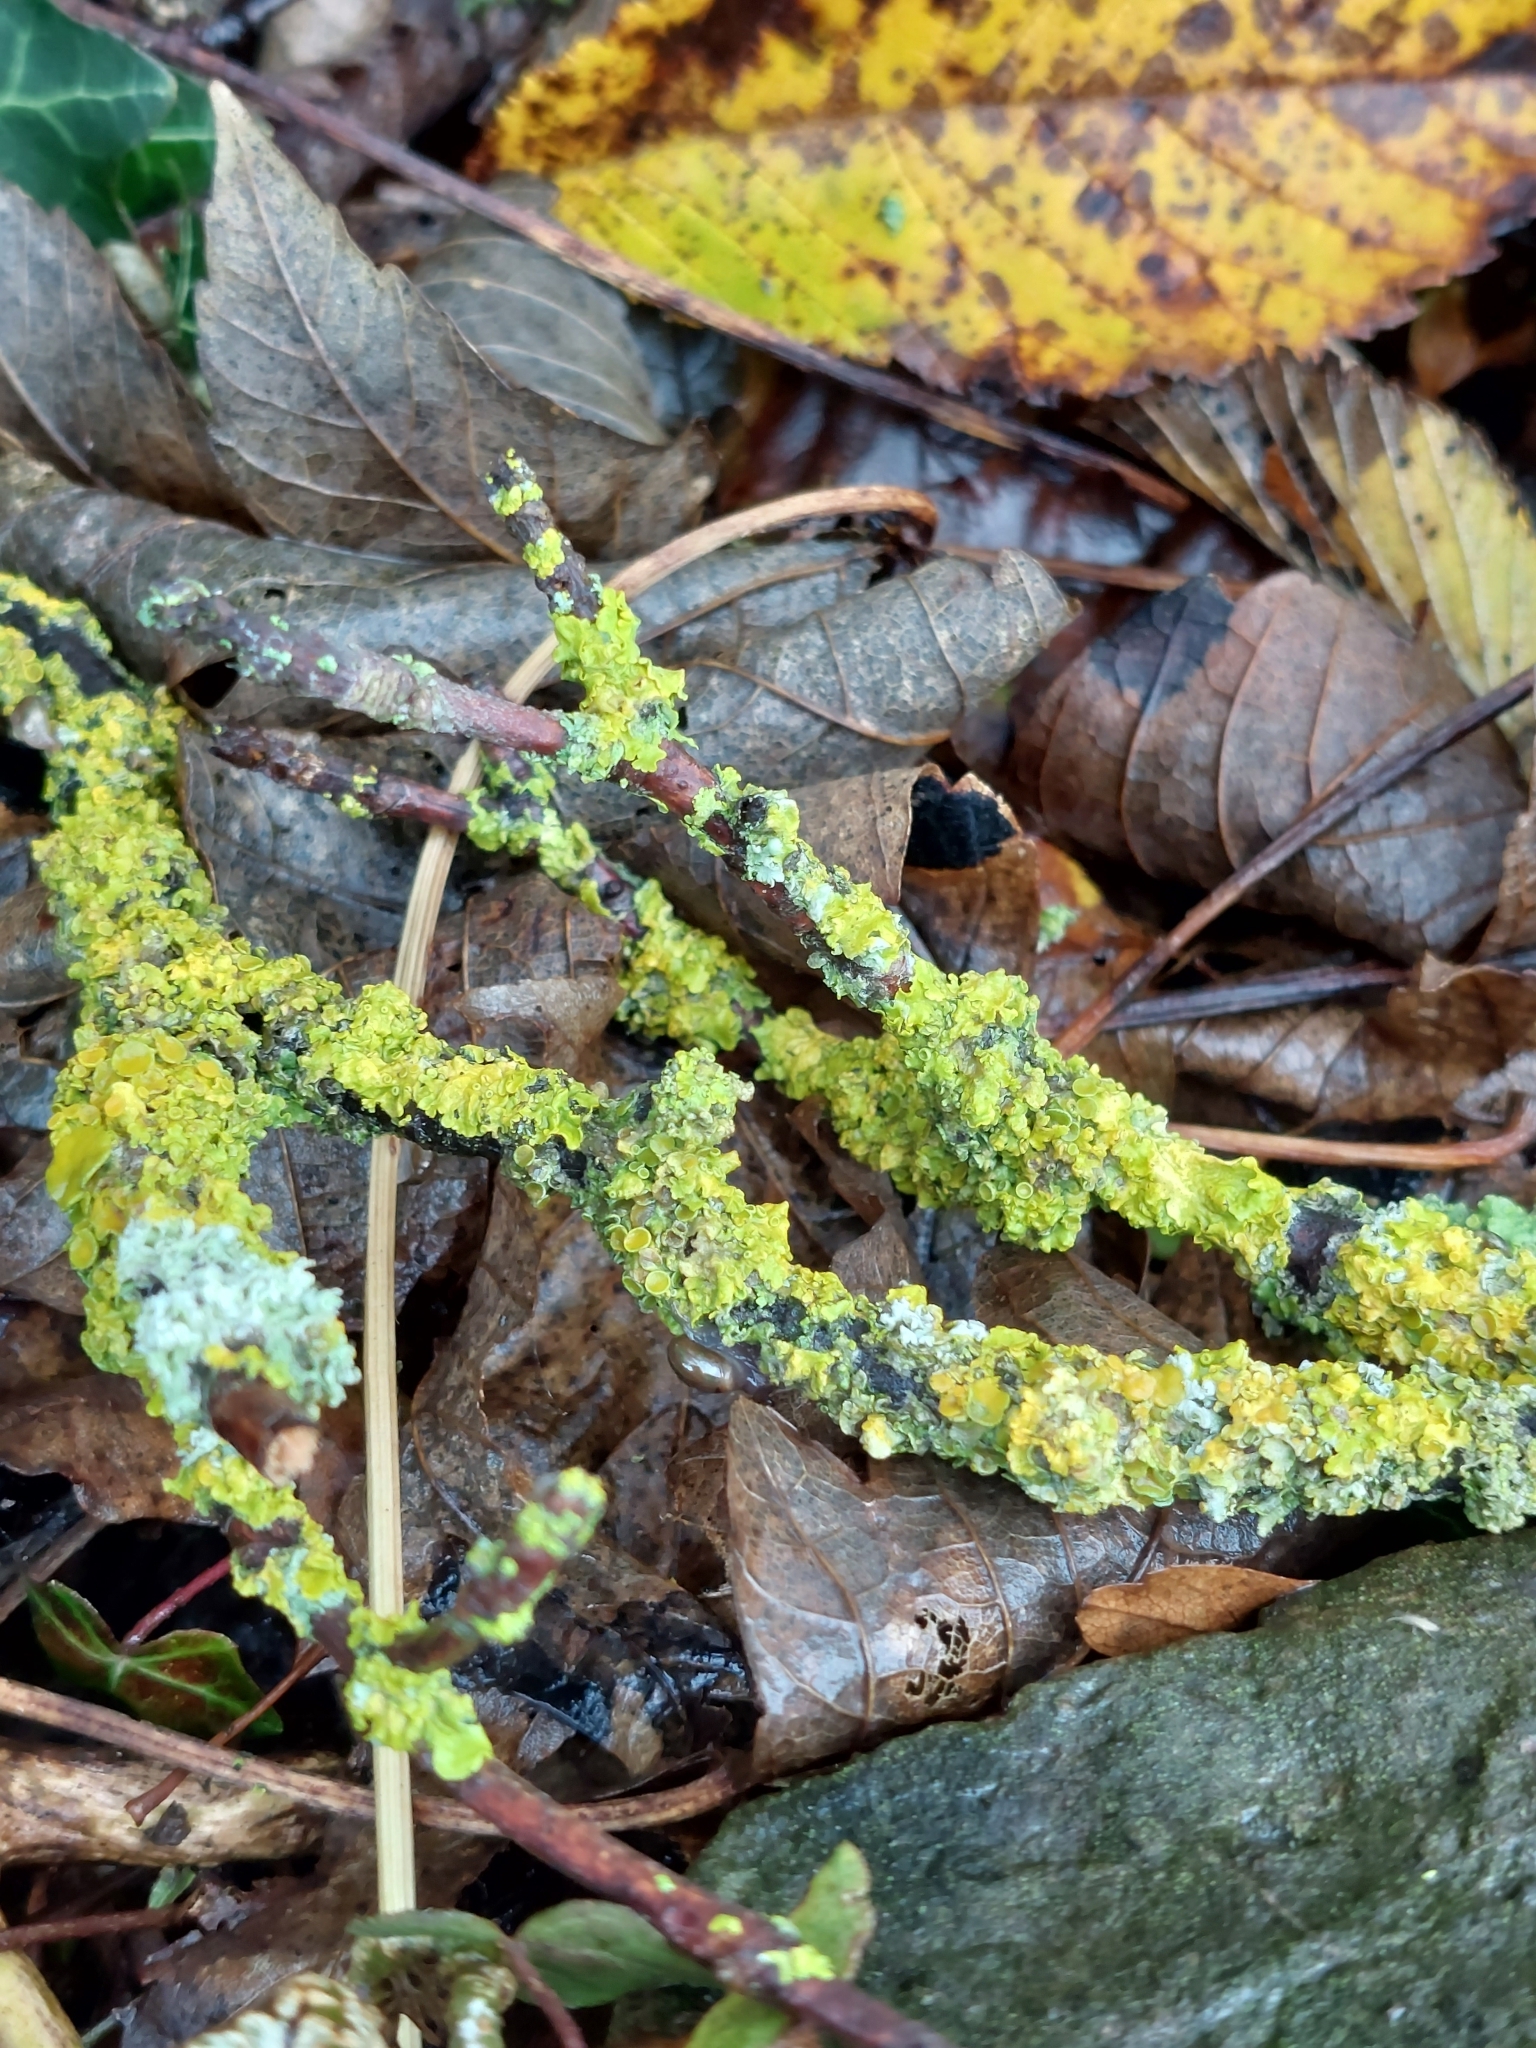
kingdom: Fungi
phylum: Ascomycota
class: Lecanoromycetes
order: Teloschistales
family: Teloschistaceae
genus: Xanthoria
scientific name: Xanthoria parietina
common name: Common orange lichen
